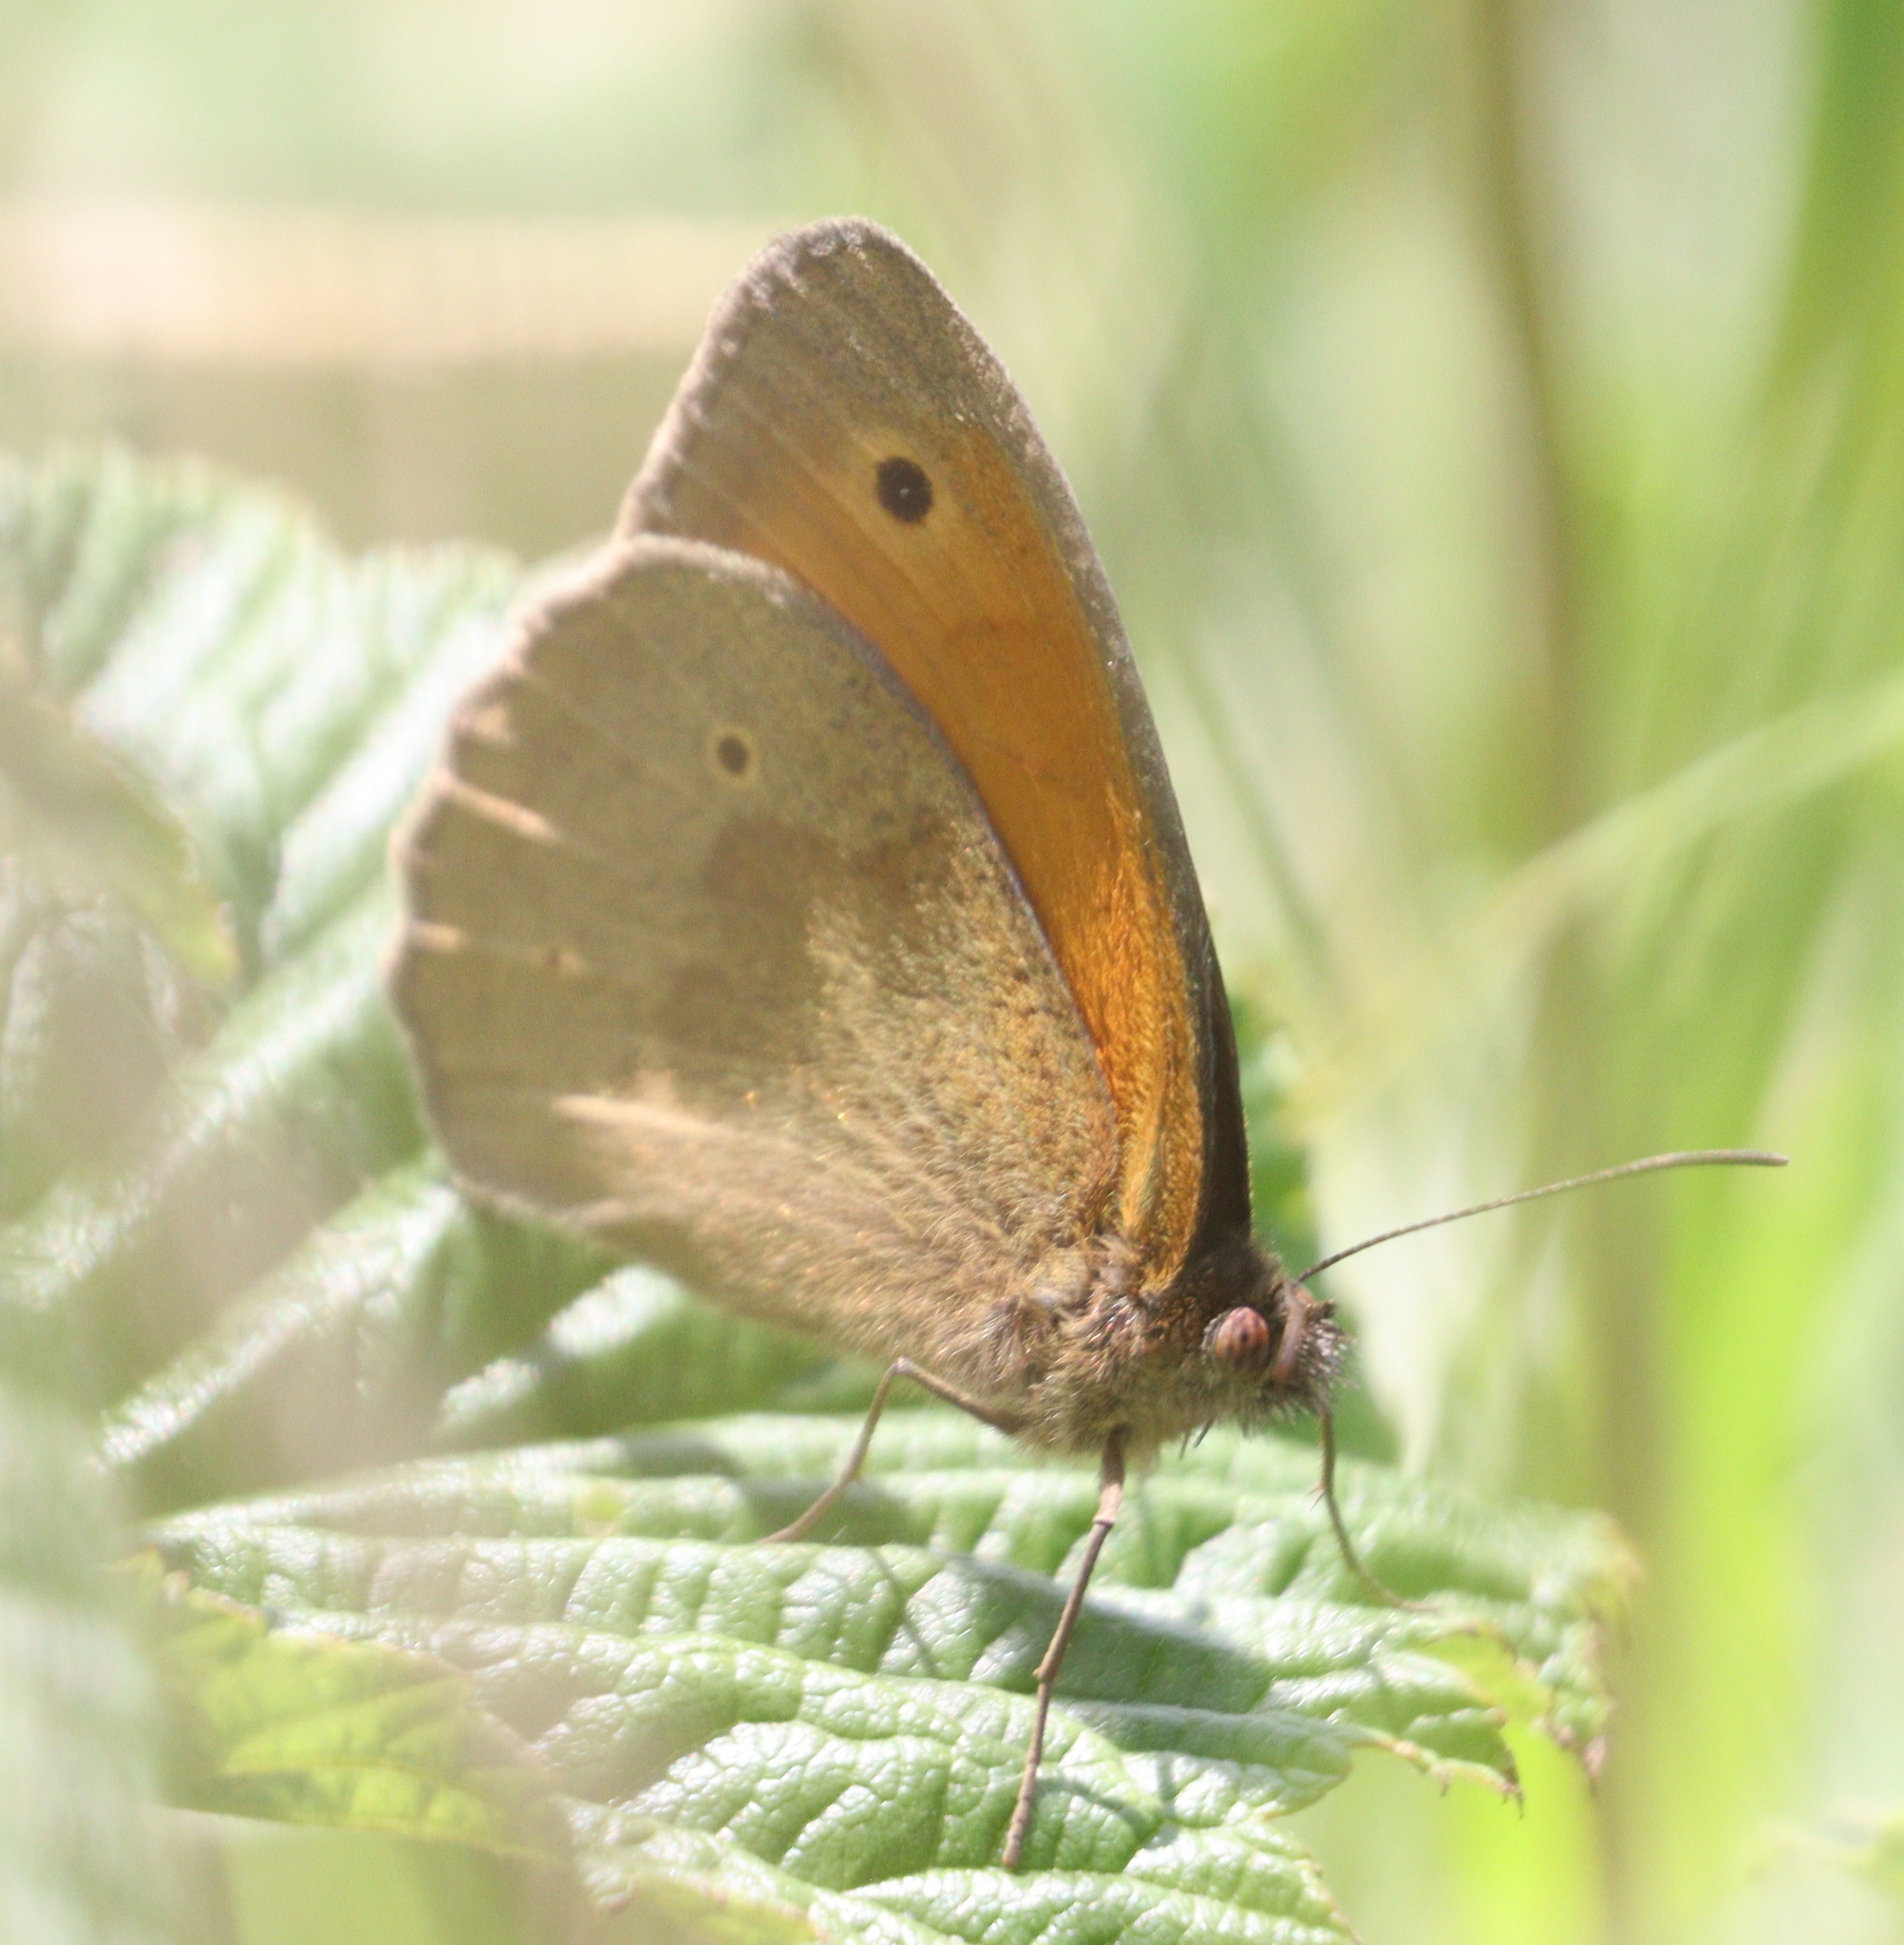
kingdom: Animalia
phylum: Arthropoda
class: Insecta
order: Lepidoptera
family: Nymphalidae
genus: Maniola
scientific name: Maniola jurtina
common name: Meadow brown
